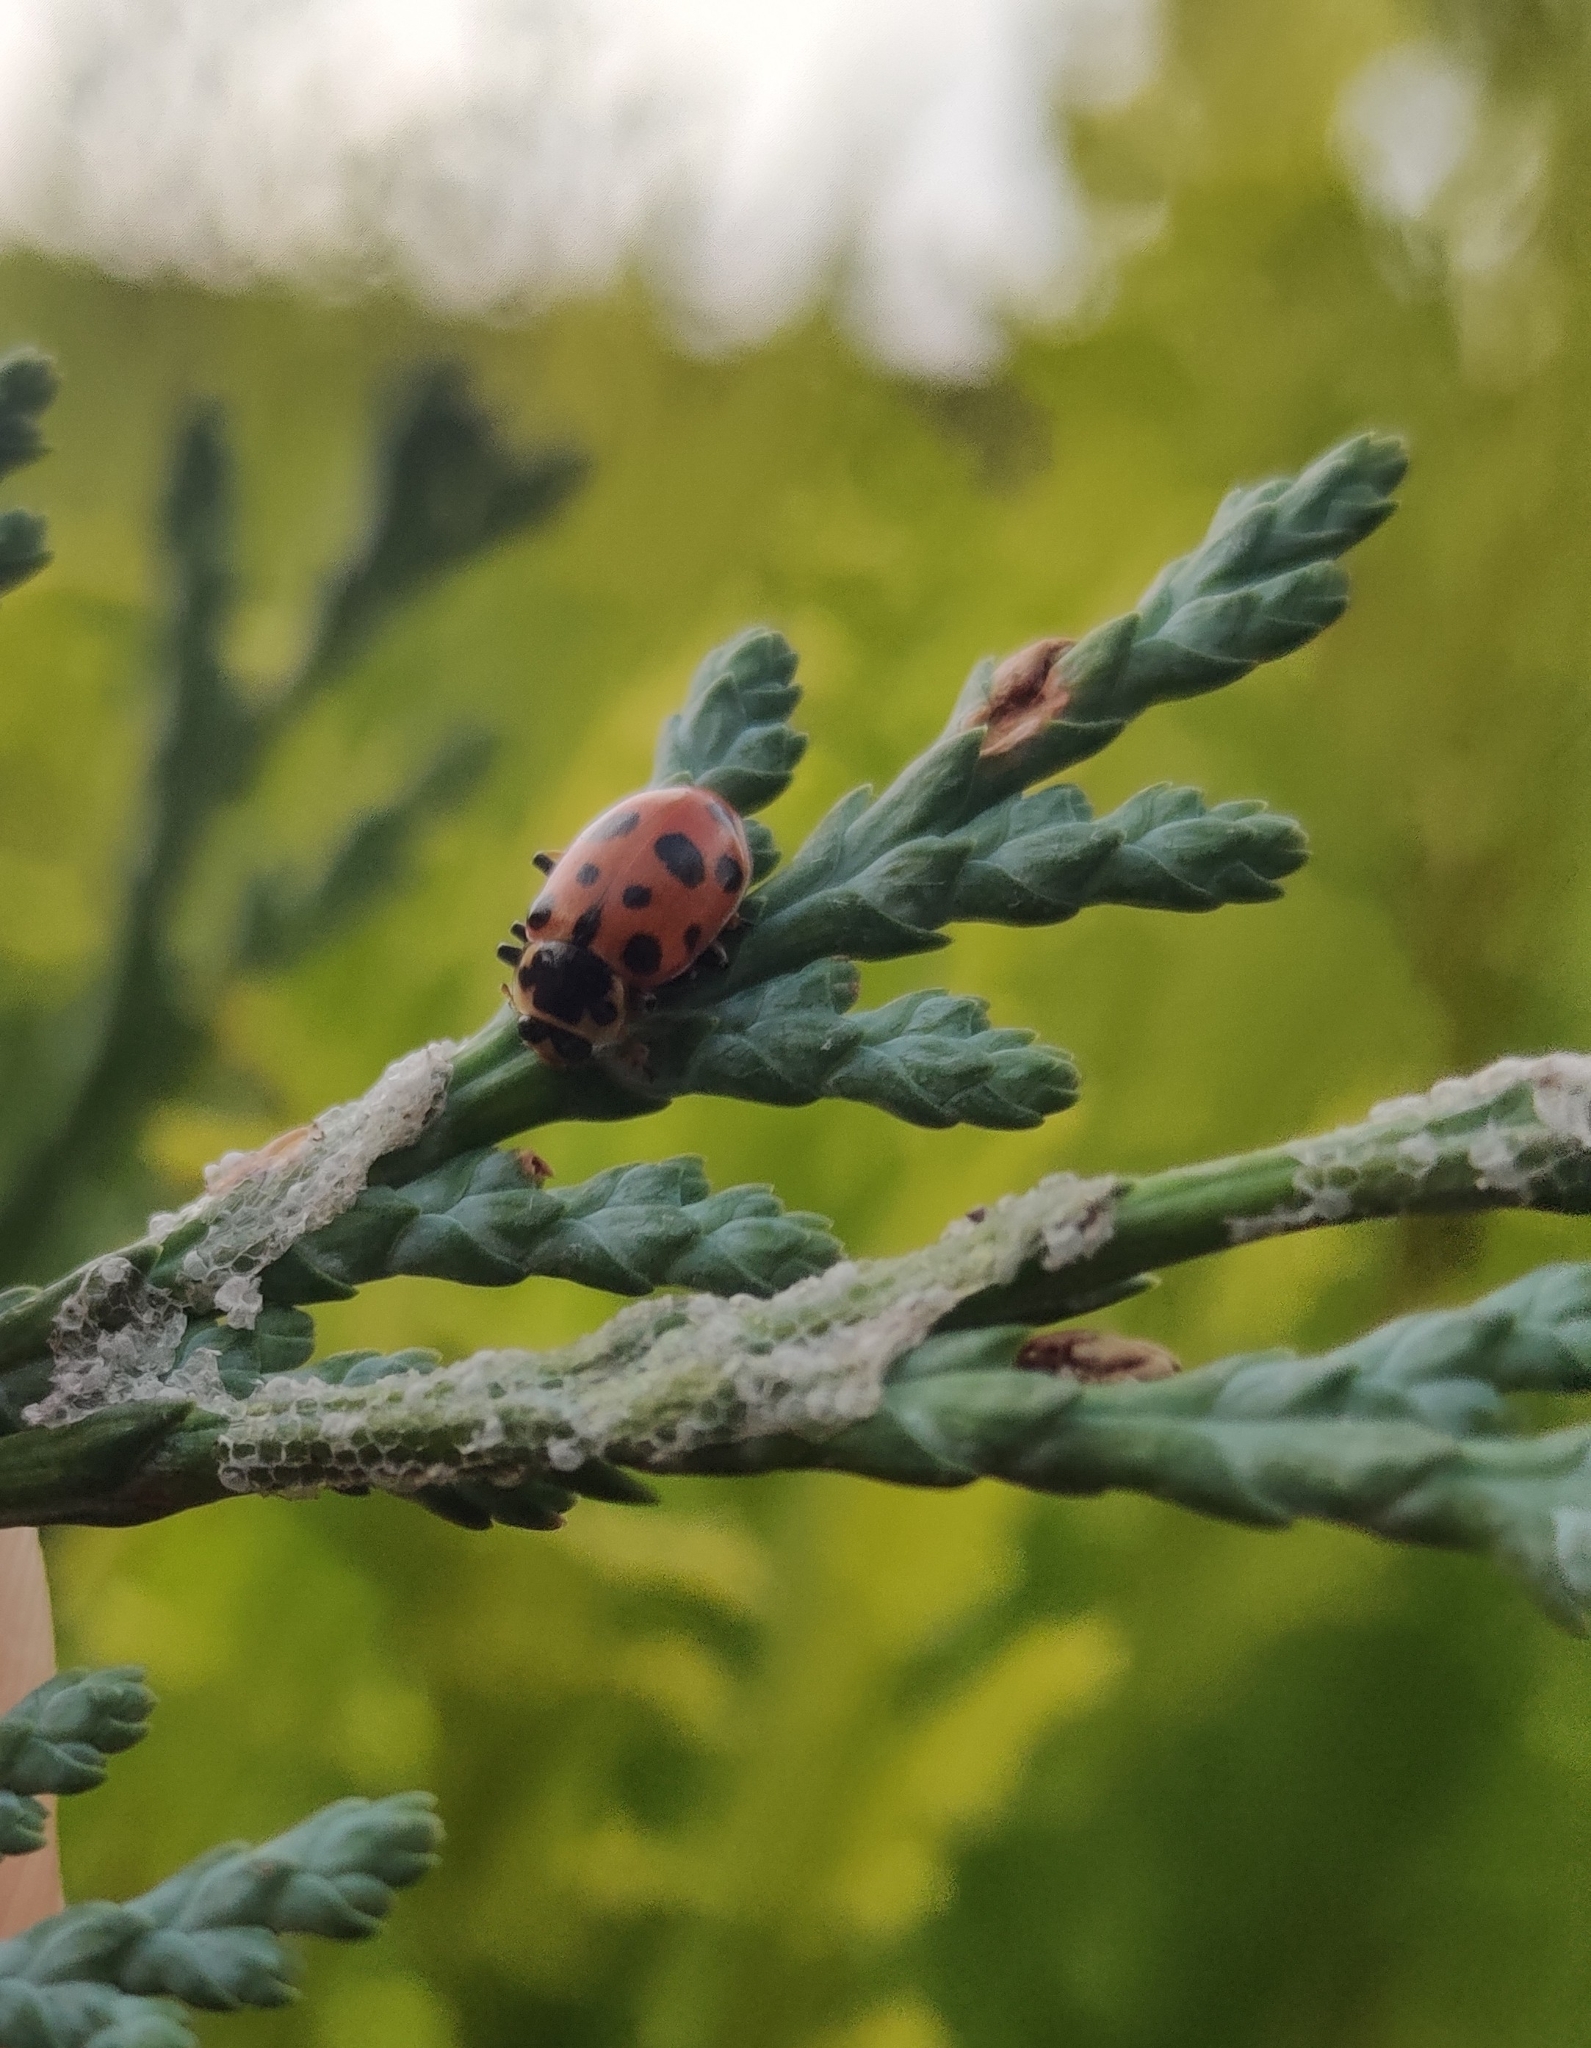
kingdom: Animalia
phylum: Arthropoda
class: Insecta
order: Coleoptera
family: Coccinellidae
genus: Hippodamia
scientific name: Hippodamia tredecimpunctata
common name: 13-spot ladybird
